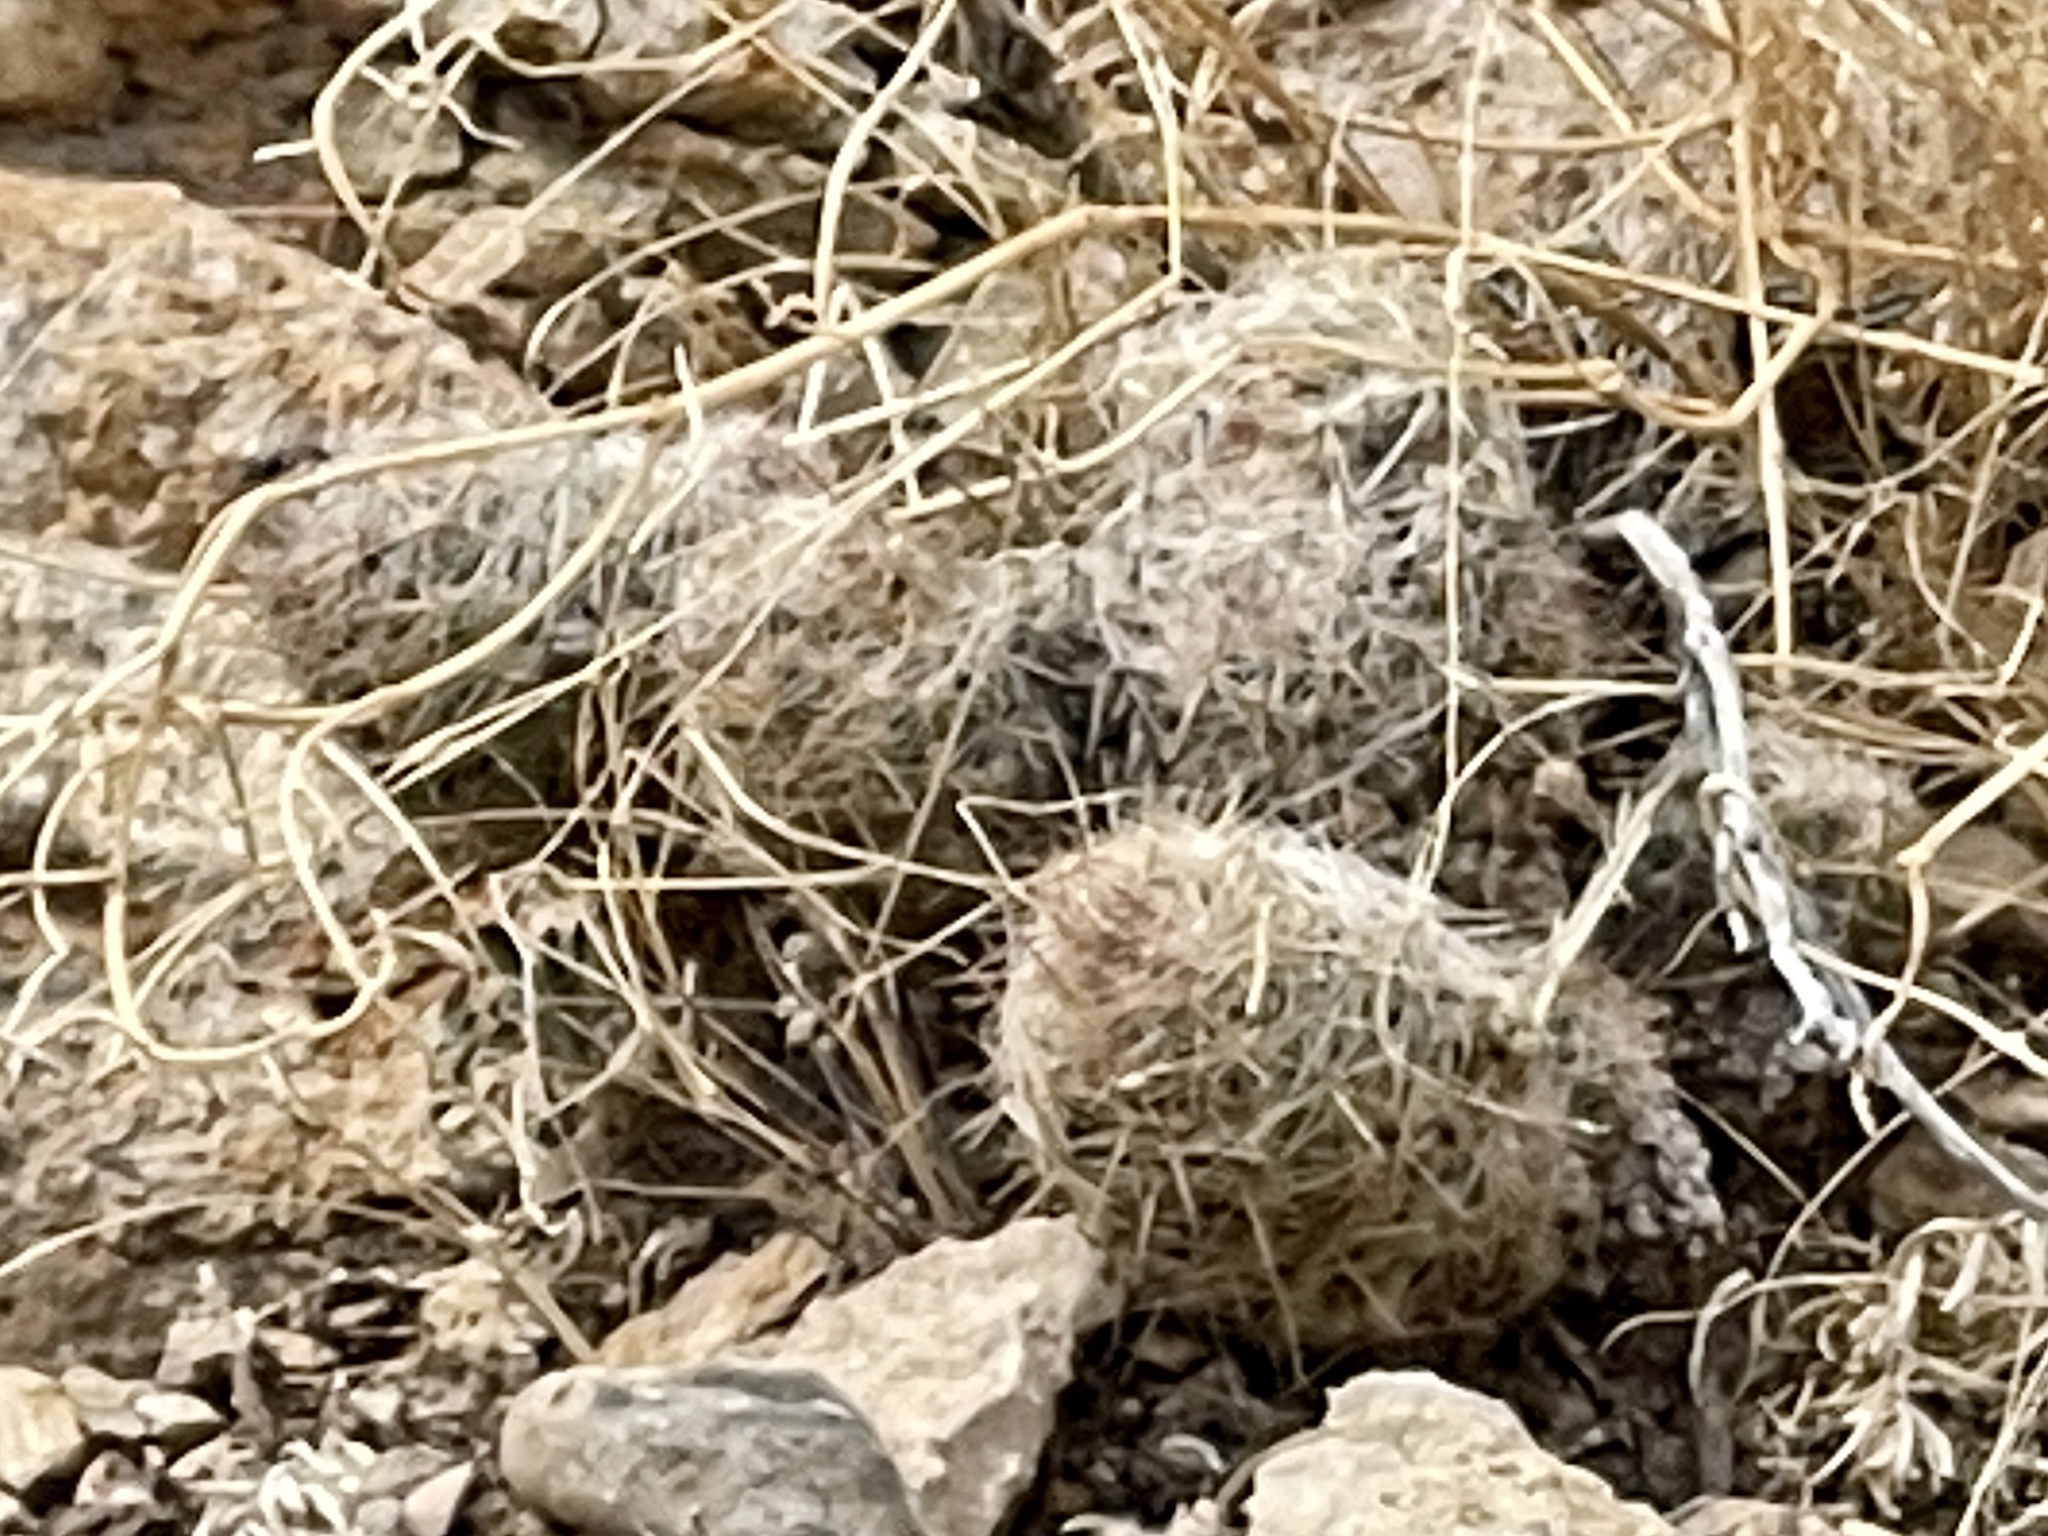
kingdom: Plantae
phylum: Tracheophyta
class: Magnoliopsida
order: Caryophyllales
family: Cactaceae
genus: Pelecyphora
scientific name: Pelecyphora tuberculosa
